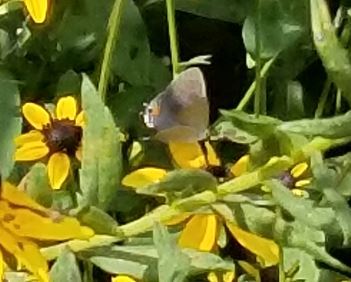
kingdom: Animalia
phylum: Arthropoda
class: Insecta
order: Lepidoptera
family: Lycaenidae
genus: Strymon
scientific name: Strymon melinus
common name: Gray hairstreak
